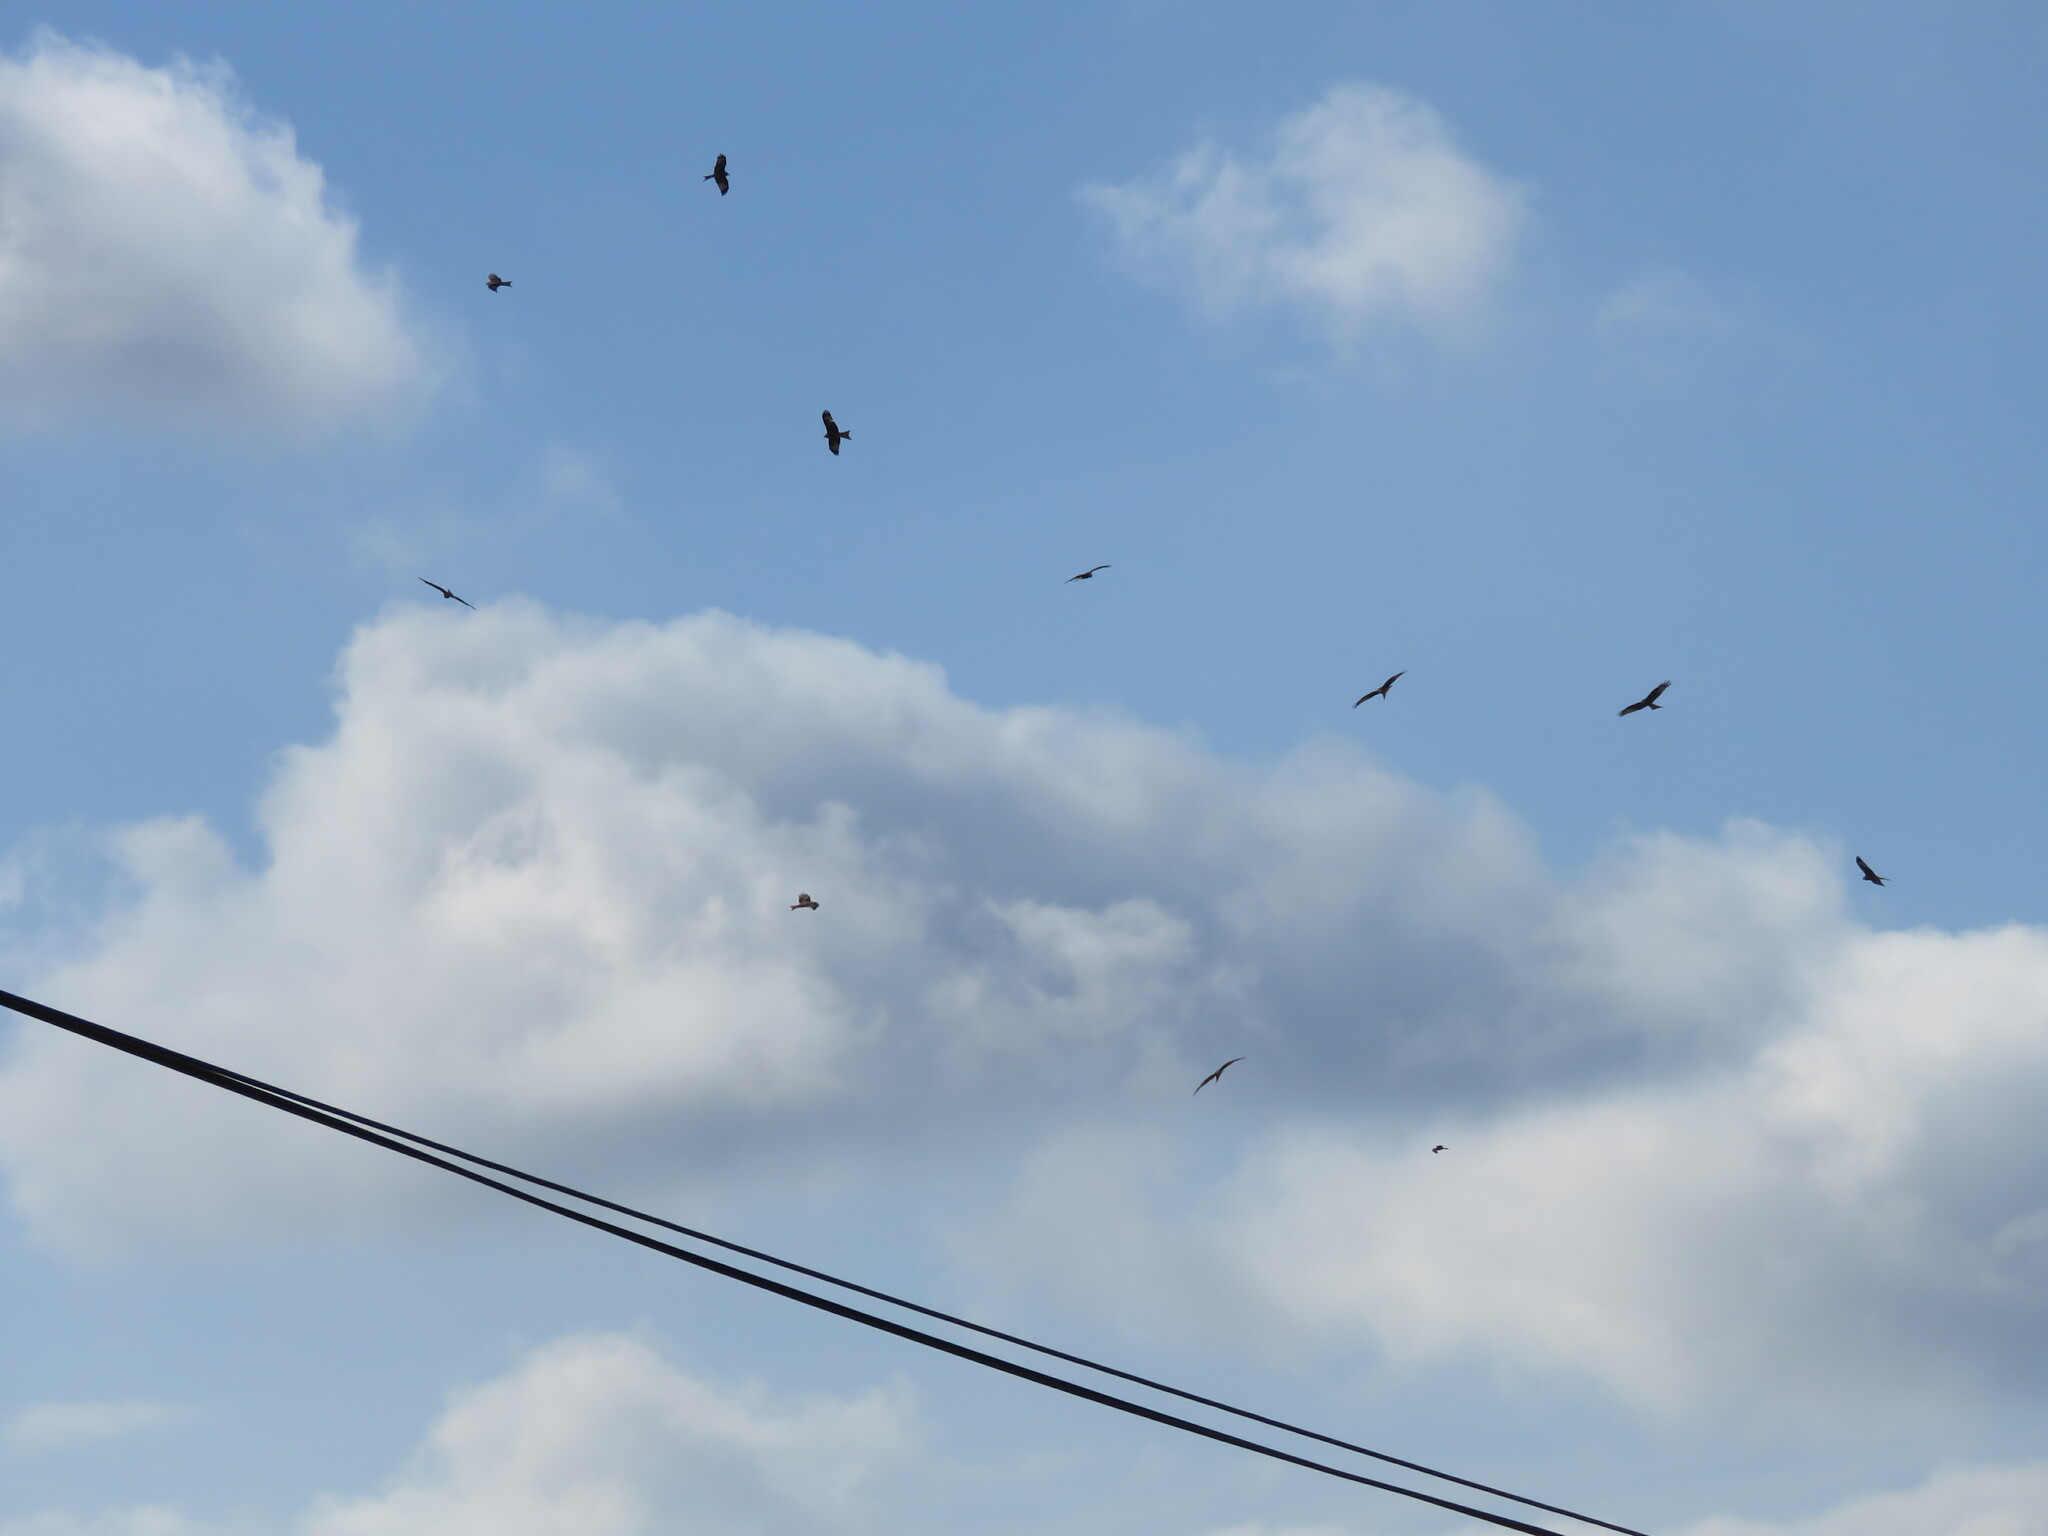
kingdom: Animalia
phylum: Chordata
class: Aves
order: Accipitriformes
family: Accipitridae
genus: Milvus
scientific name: Milvus milvus
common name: Red kite
